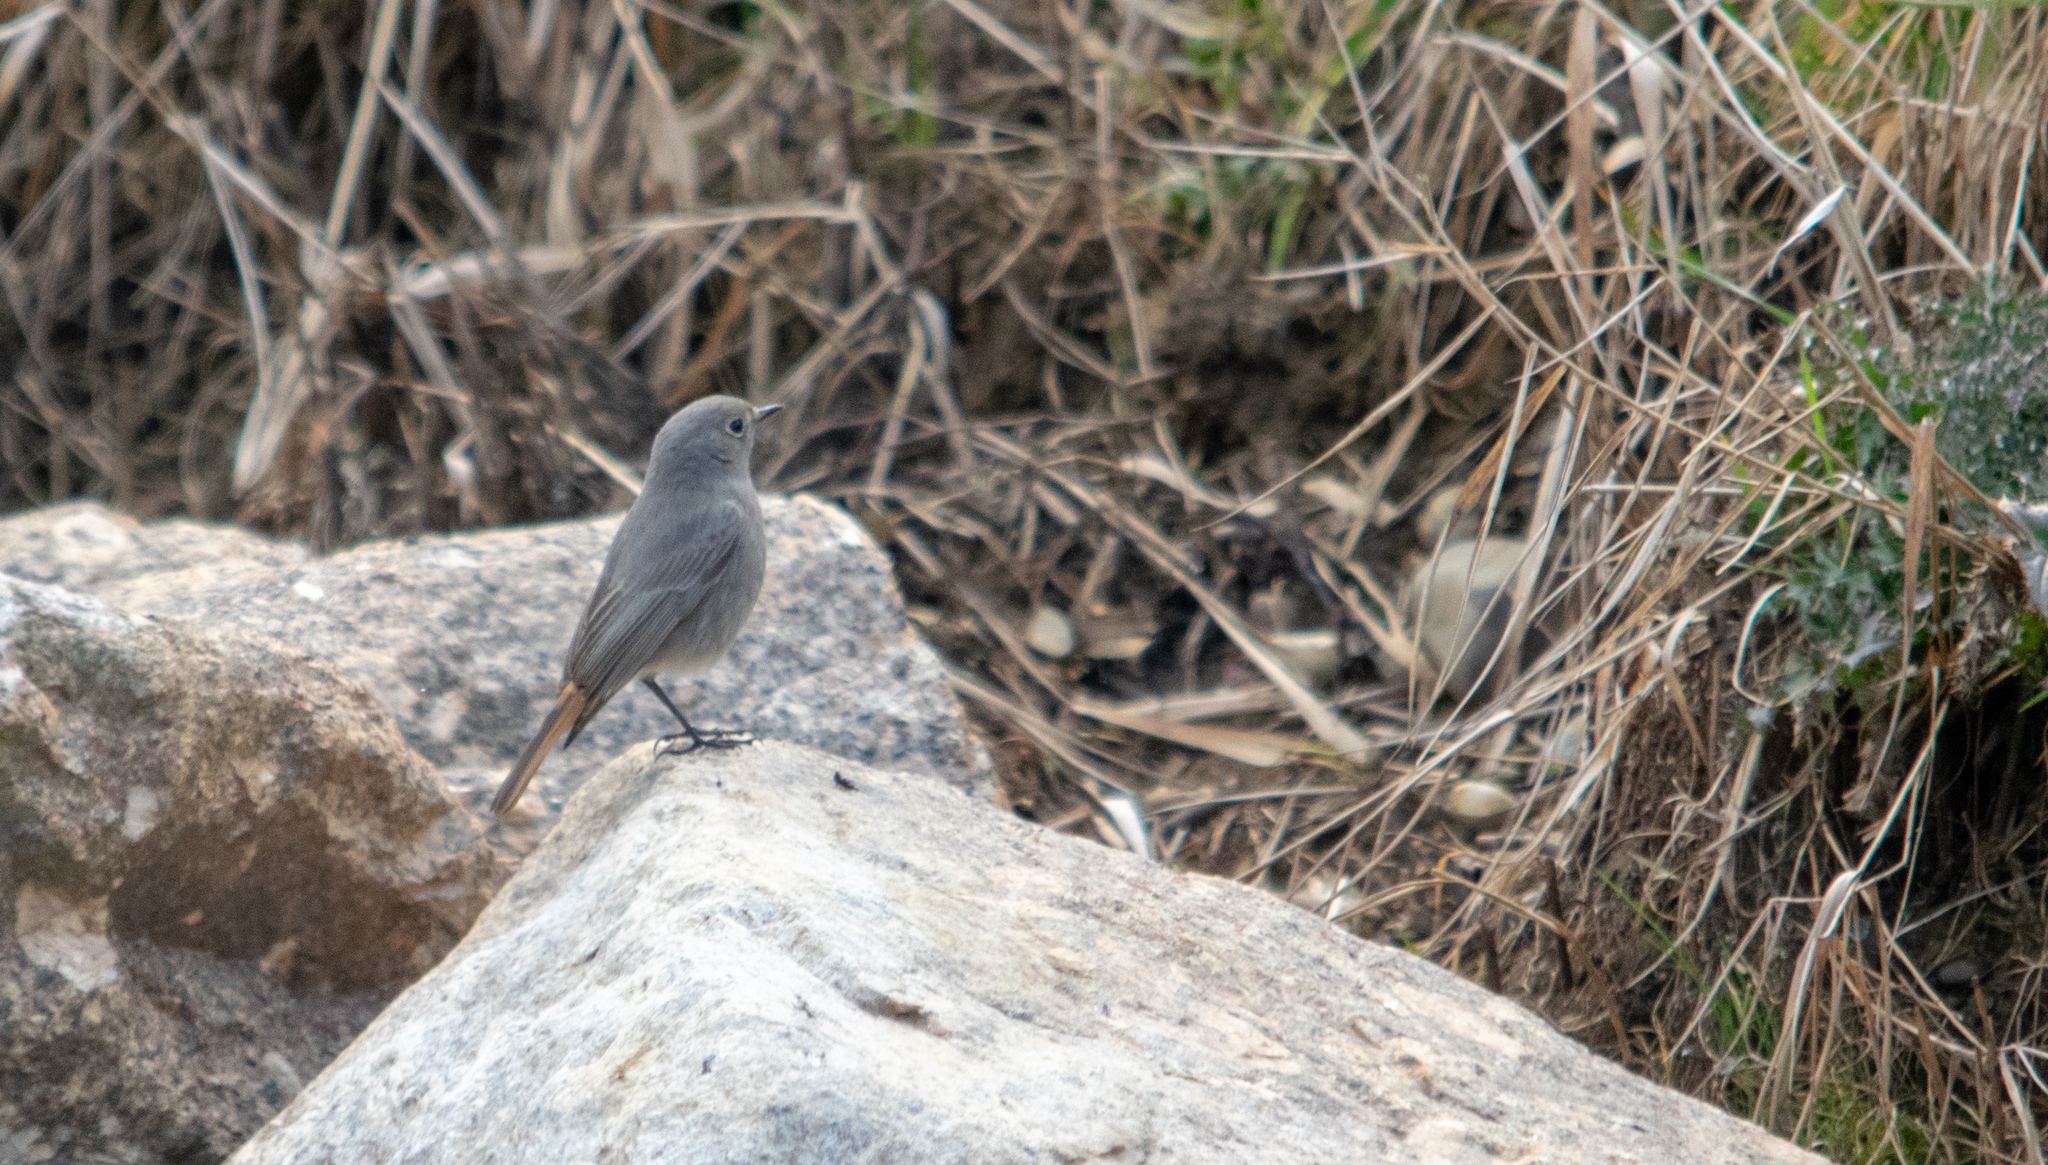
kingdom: Animalia
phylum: Chordata
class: Aves
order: Passeriformes
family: Muscicapidae
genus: Phoenicurus
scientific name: Phoenicurus ochruros
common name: Black redstart
